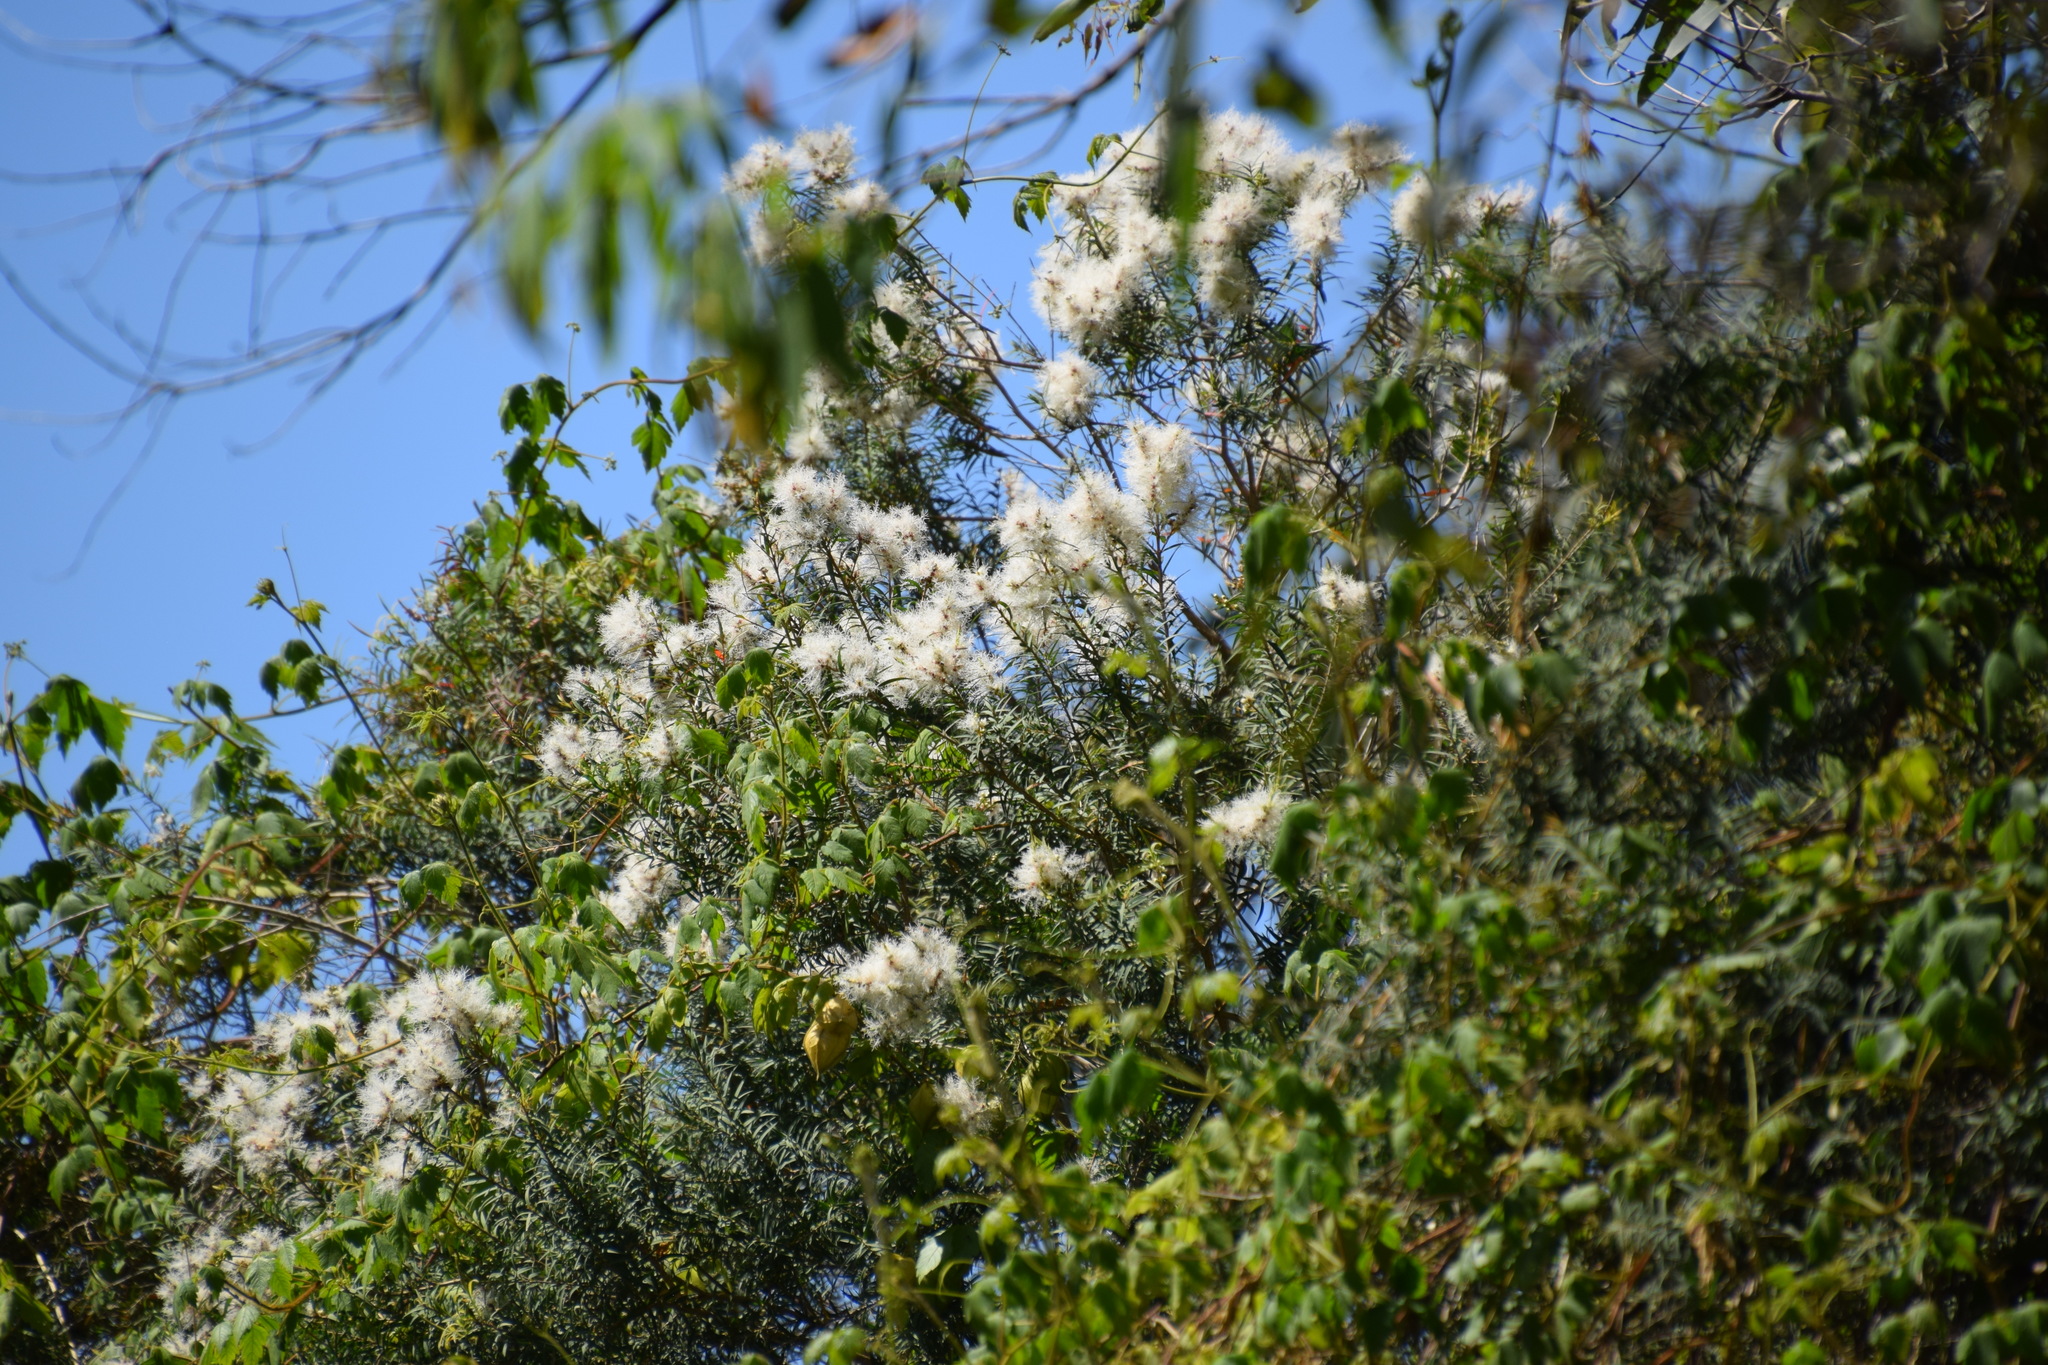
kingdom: Plantae
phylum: Tracheophyta
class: Magnoliopsida
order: Myrtales
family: Myrtaceae
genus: Melaleuca
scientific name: Melaleuca linariifolia
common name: Cajeput tree
